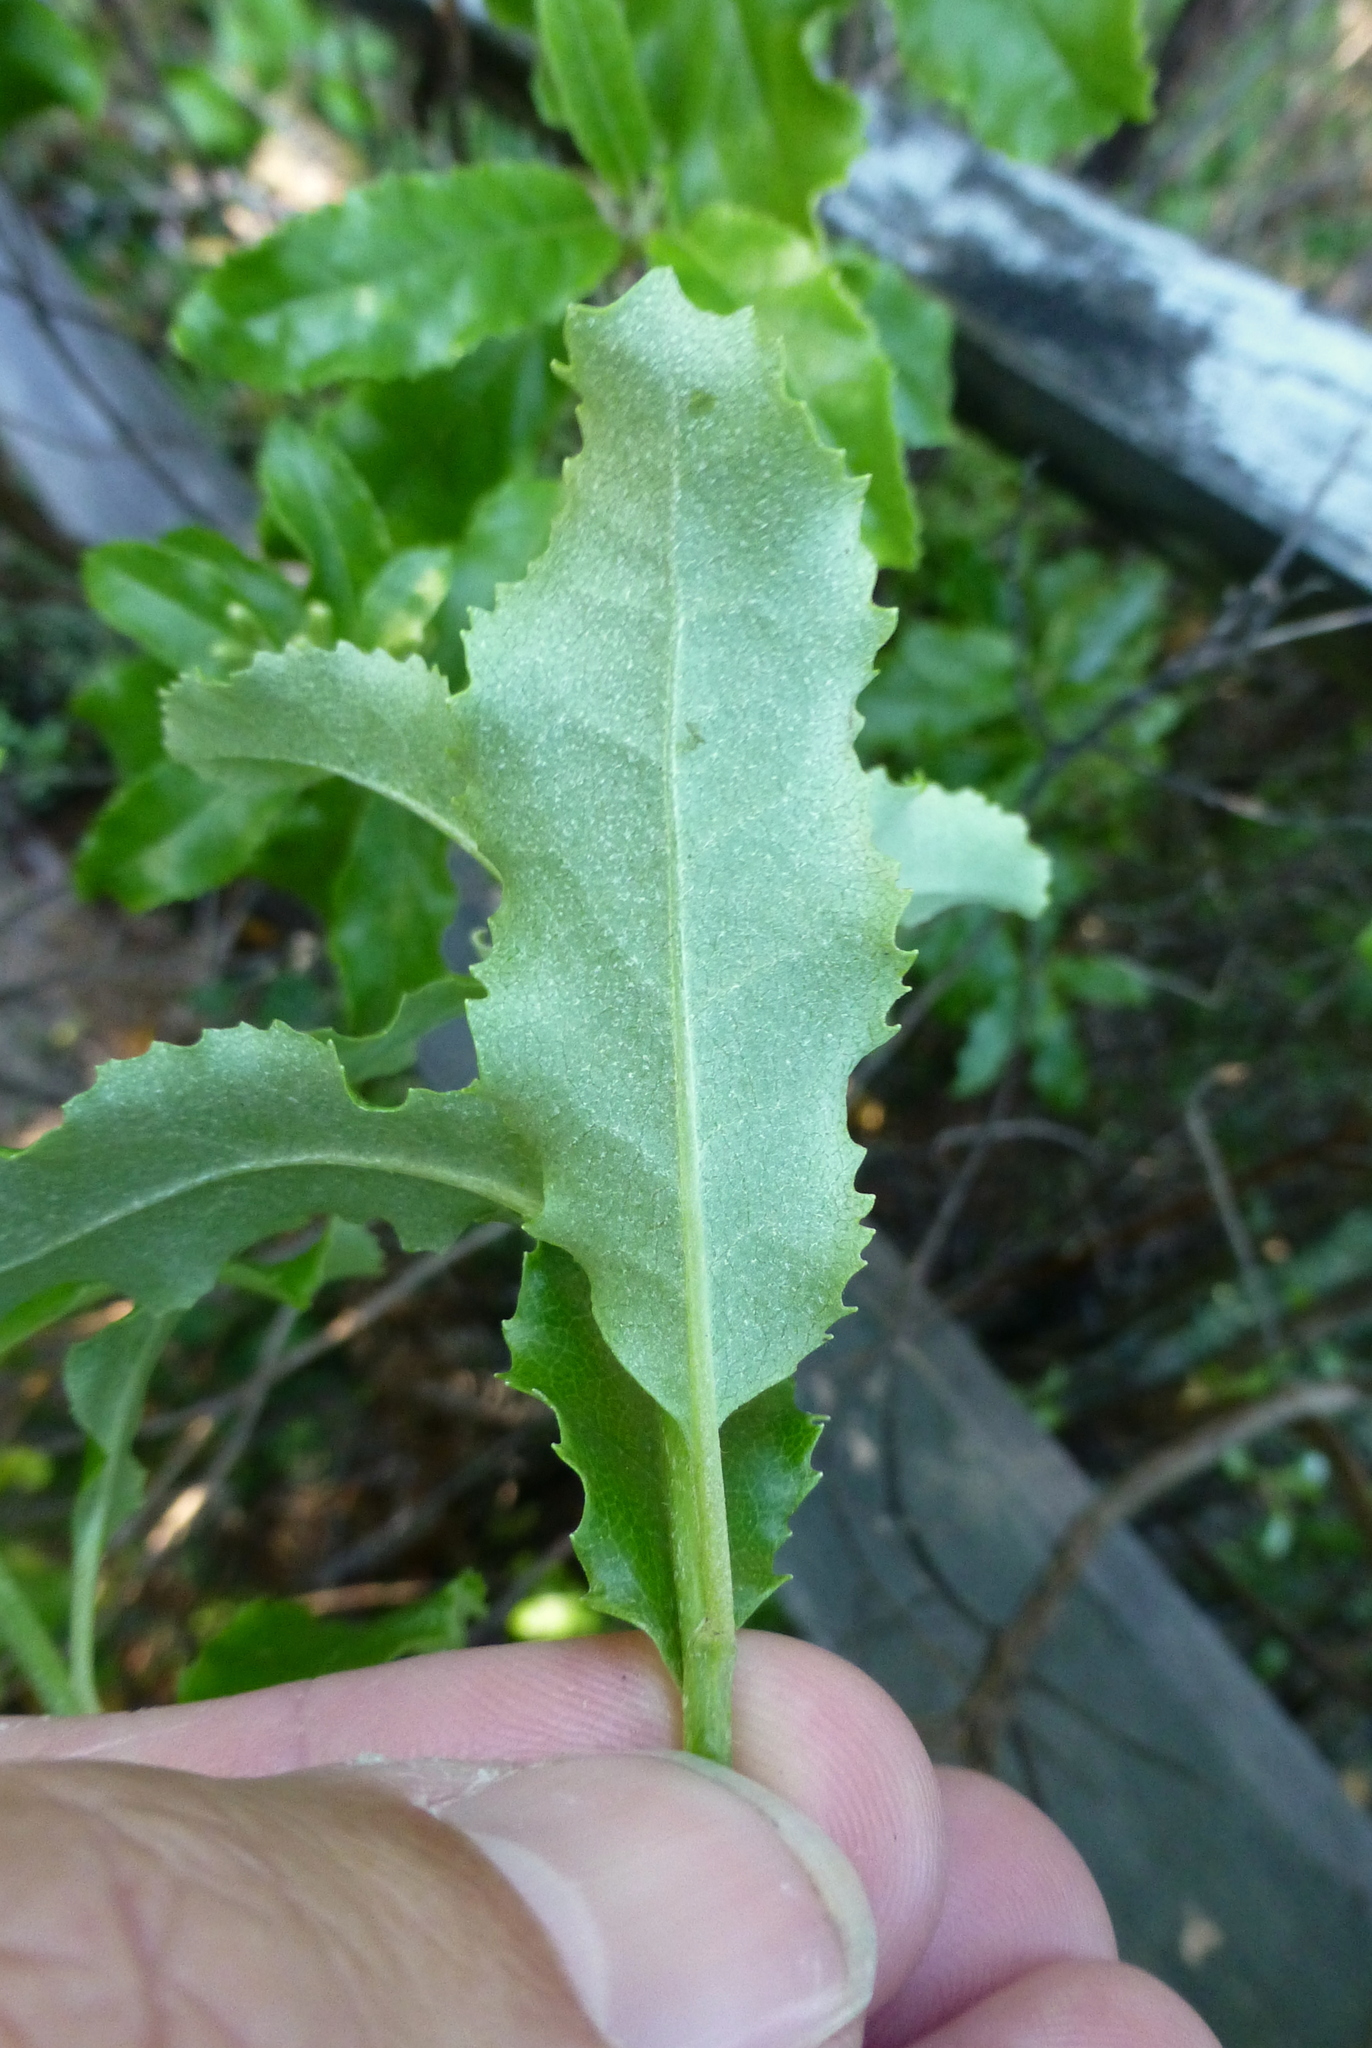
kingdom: Plantae
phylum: Tracheophyta
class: Magnoliopsida
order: Asterales
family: Asteraceae
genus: Brachyglottis
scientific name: Brachyglottis perdicioides
